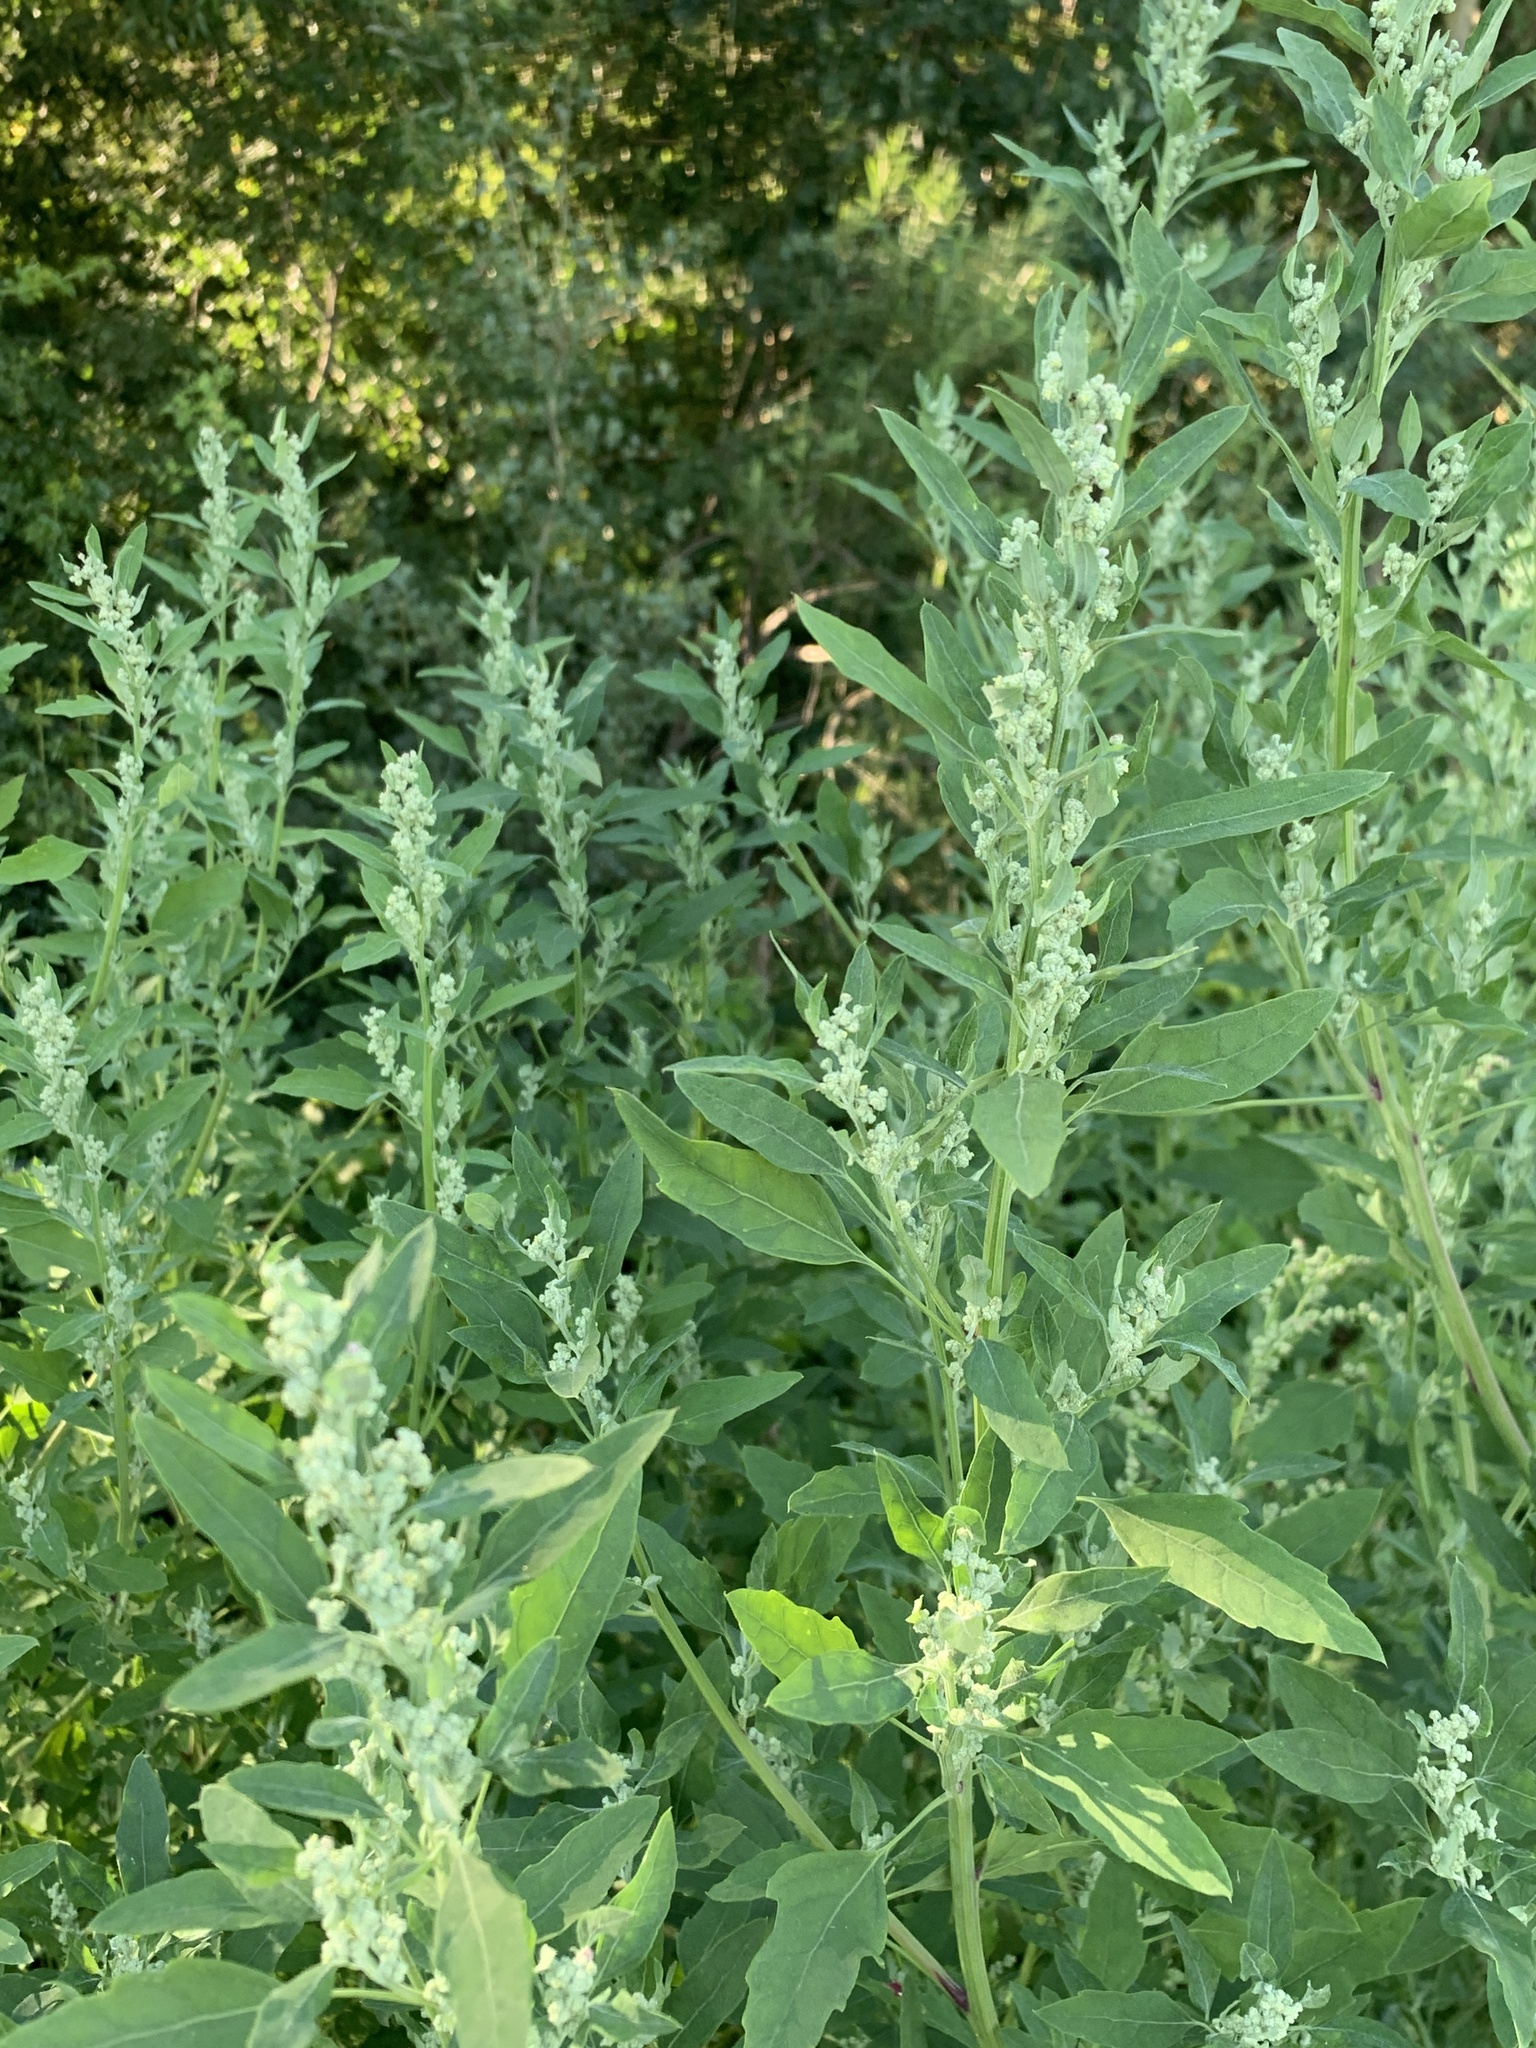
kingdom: Plantae
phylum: Tracheophyta
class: Magnoliopsida
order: Caryophyllales
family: Amaranthaceae
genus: Chenopodium
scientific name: Chenopodium album
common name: Fat-hen
